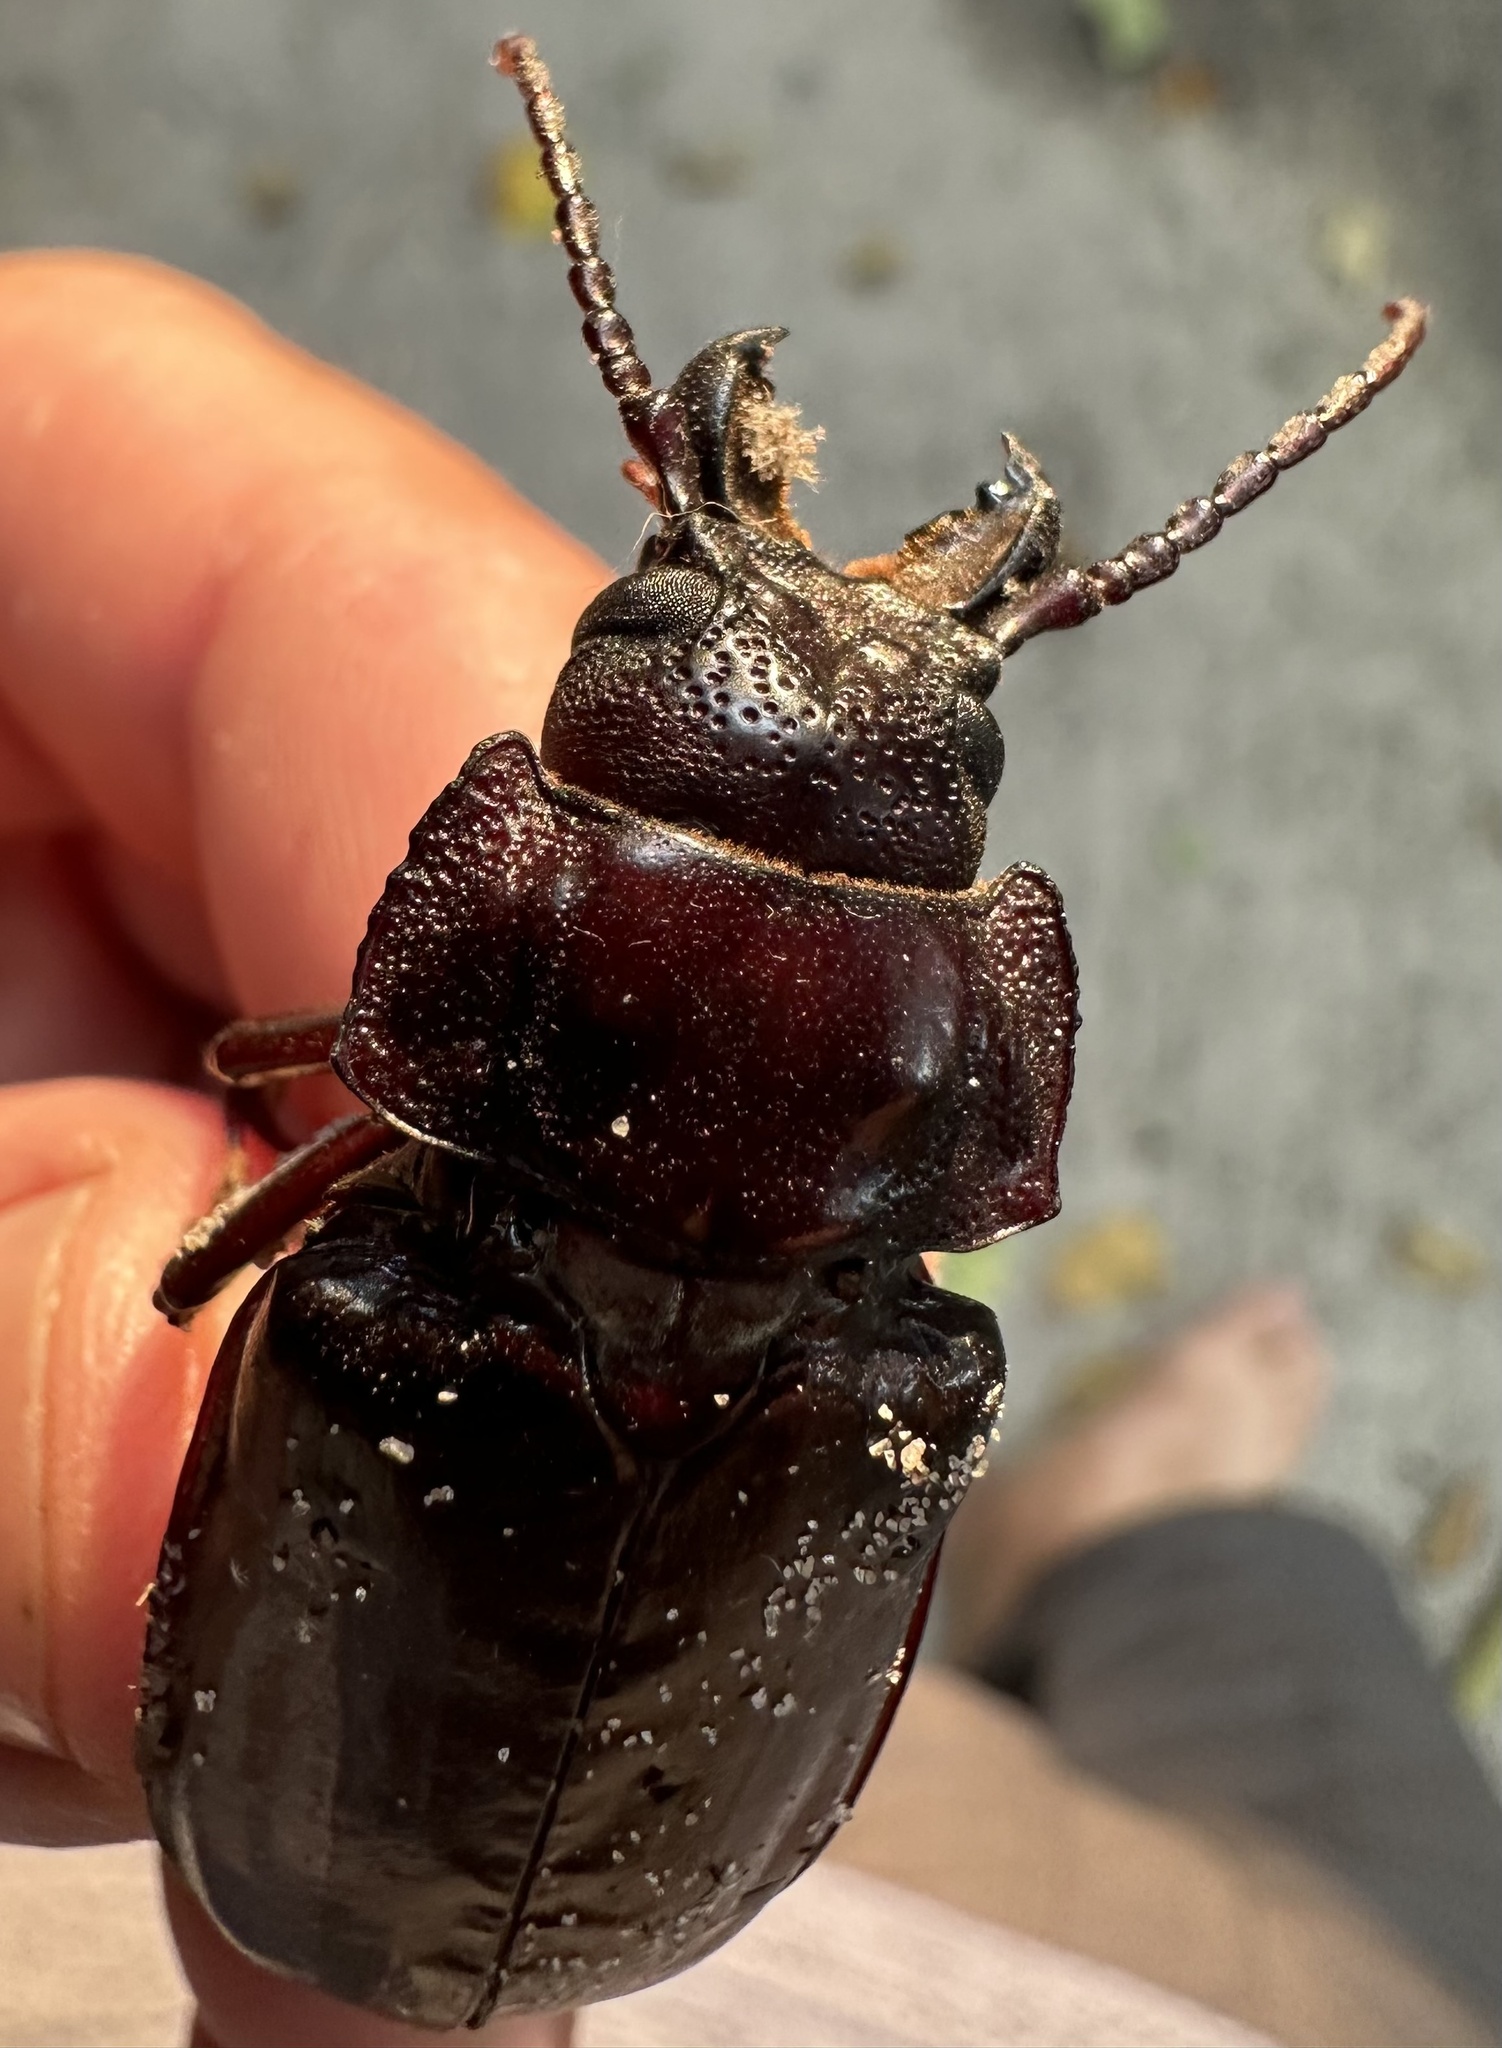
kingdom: Animalia
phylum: Arthropoda
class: Insecta
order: Coleoptera
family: Cerambycidae
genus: Mallodon
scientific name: Mallodon downesii
